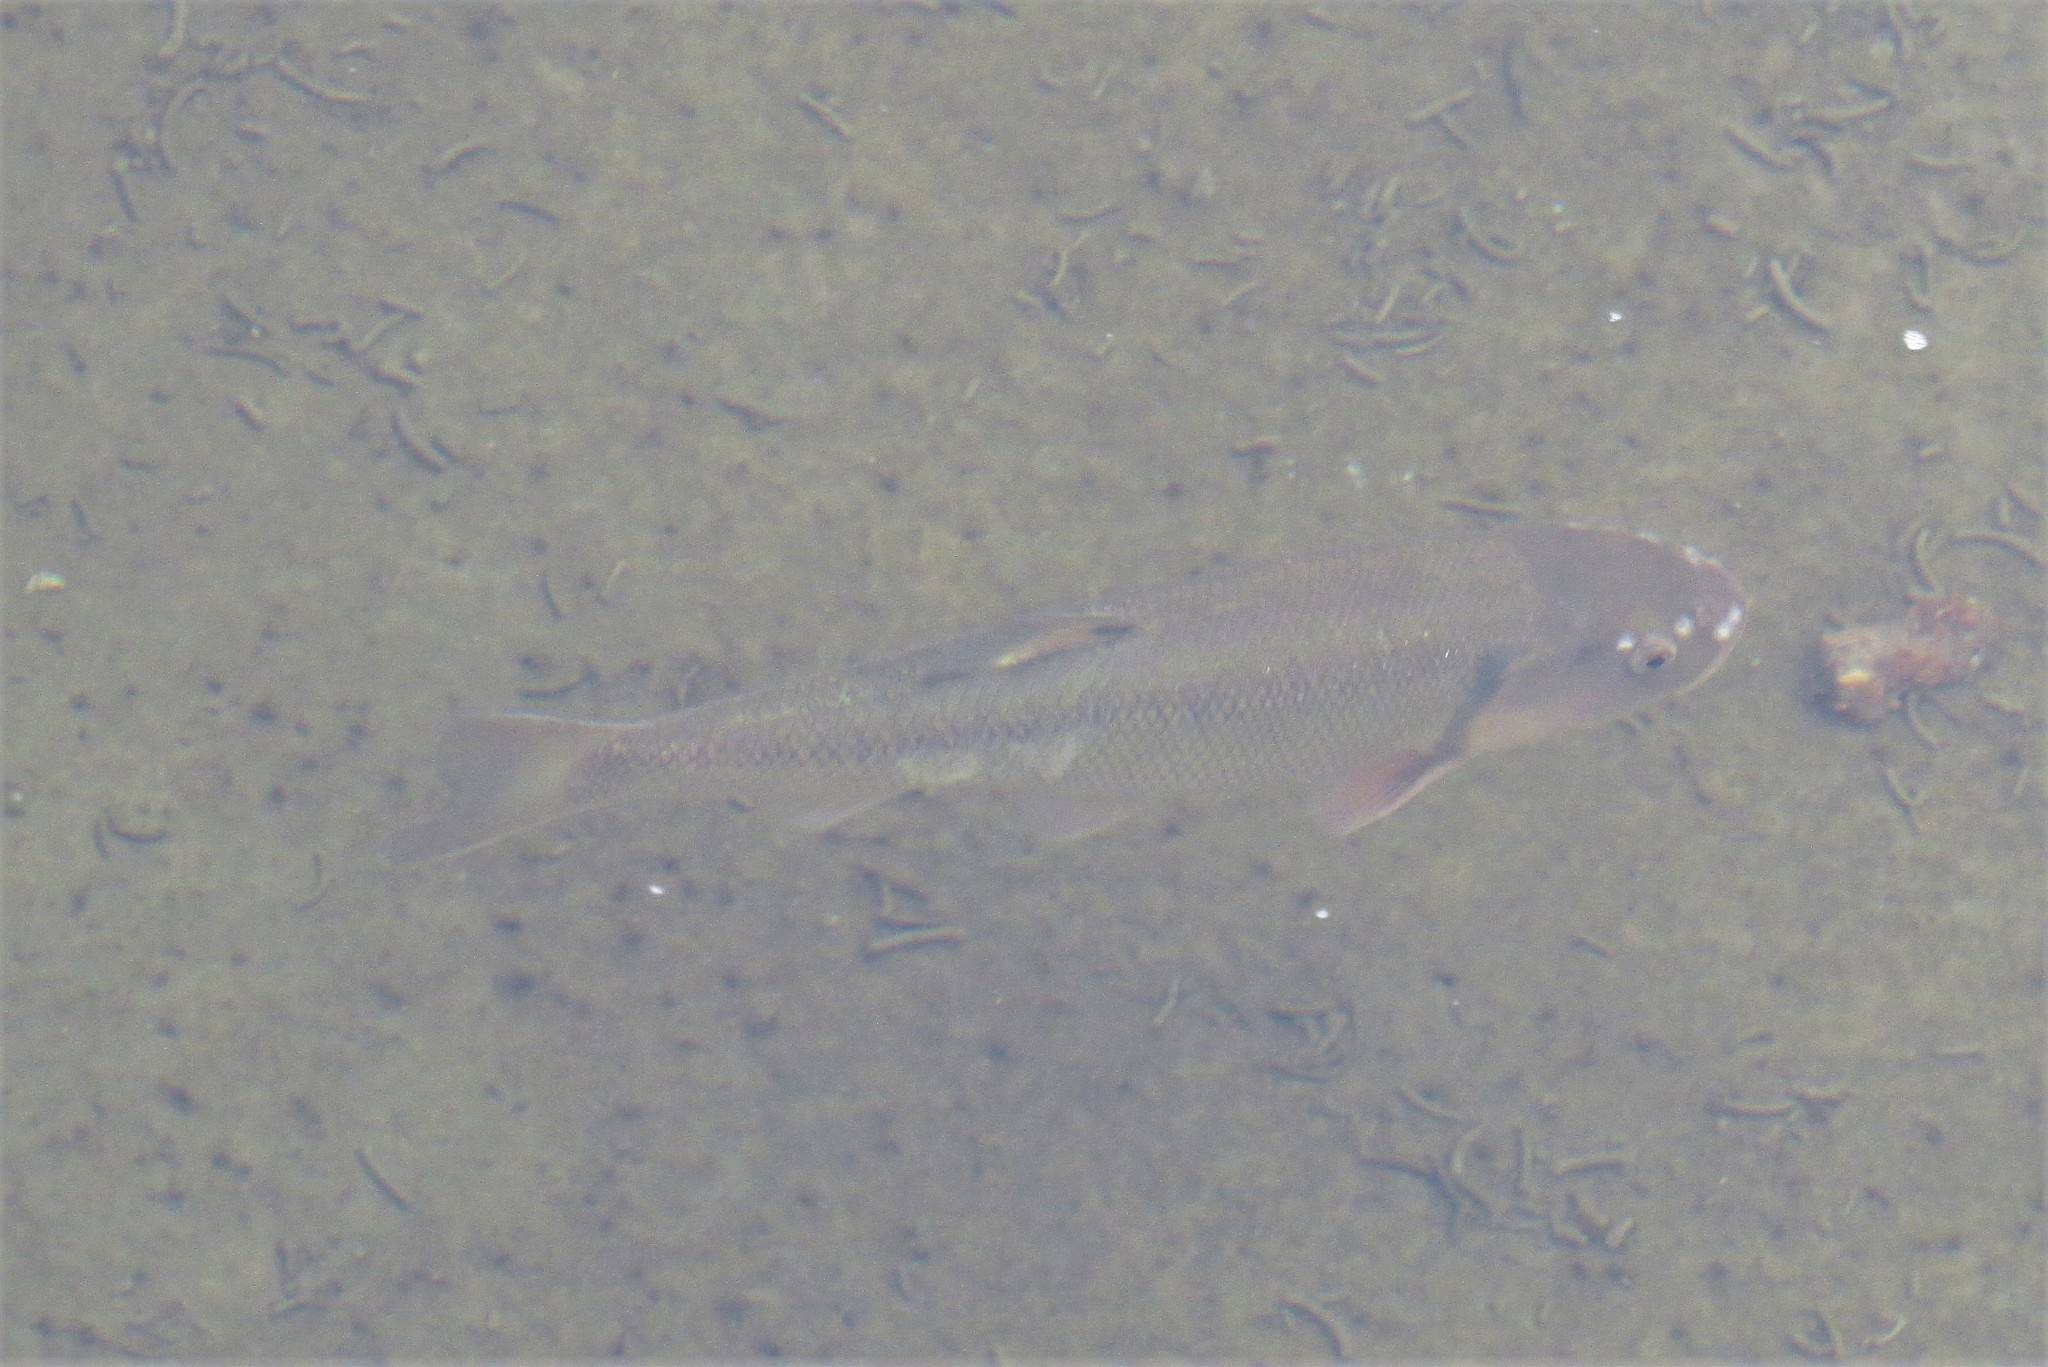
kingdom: Animalia
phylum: Chordata
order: Cypriniformes
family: Cyprinidae
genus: Semotilus
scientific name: Semotilus atromaculatus
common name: Creek chub
